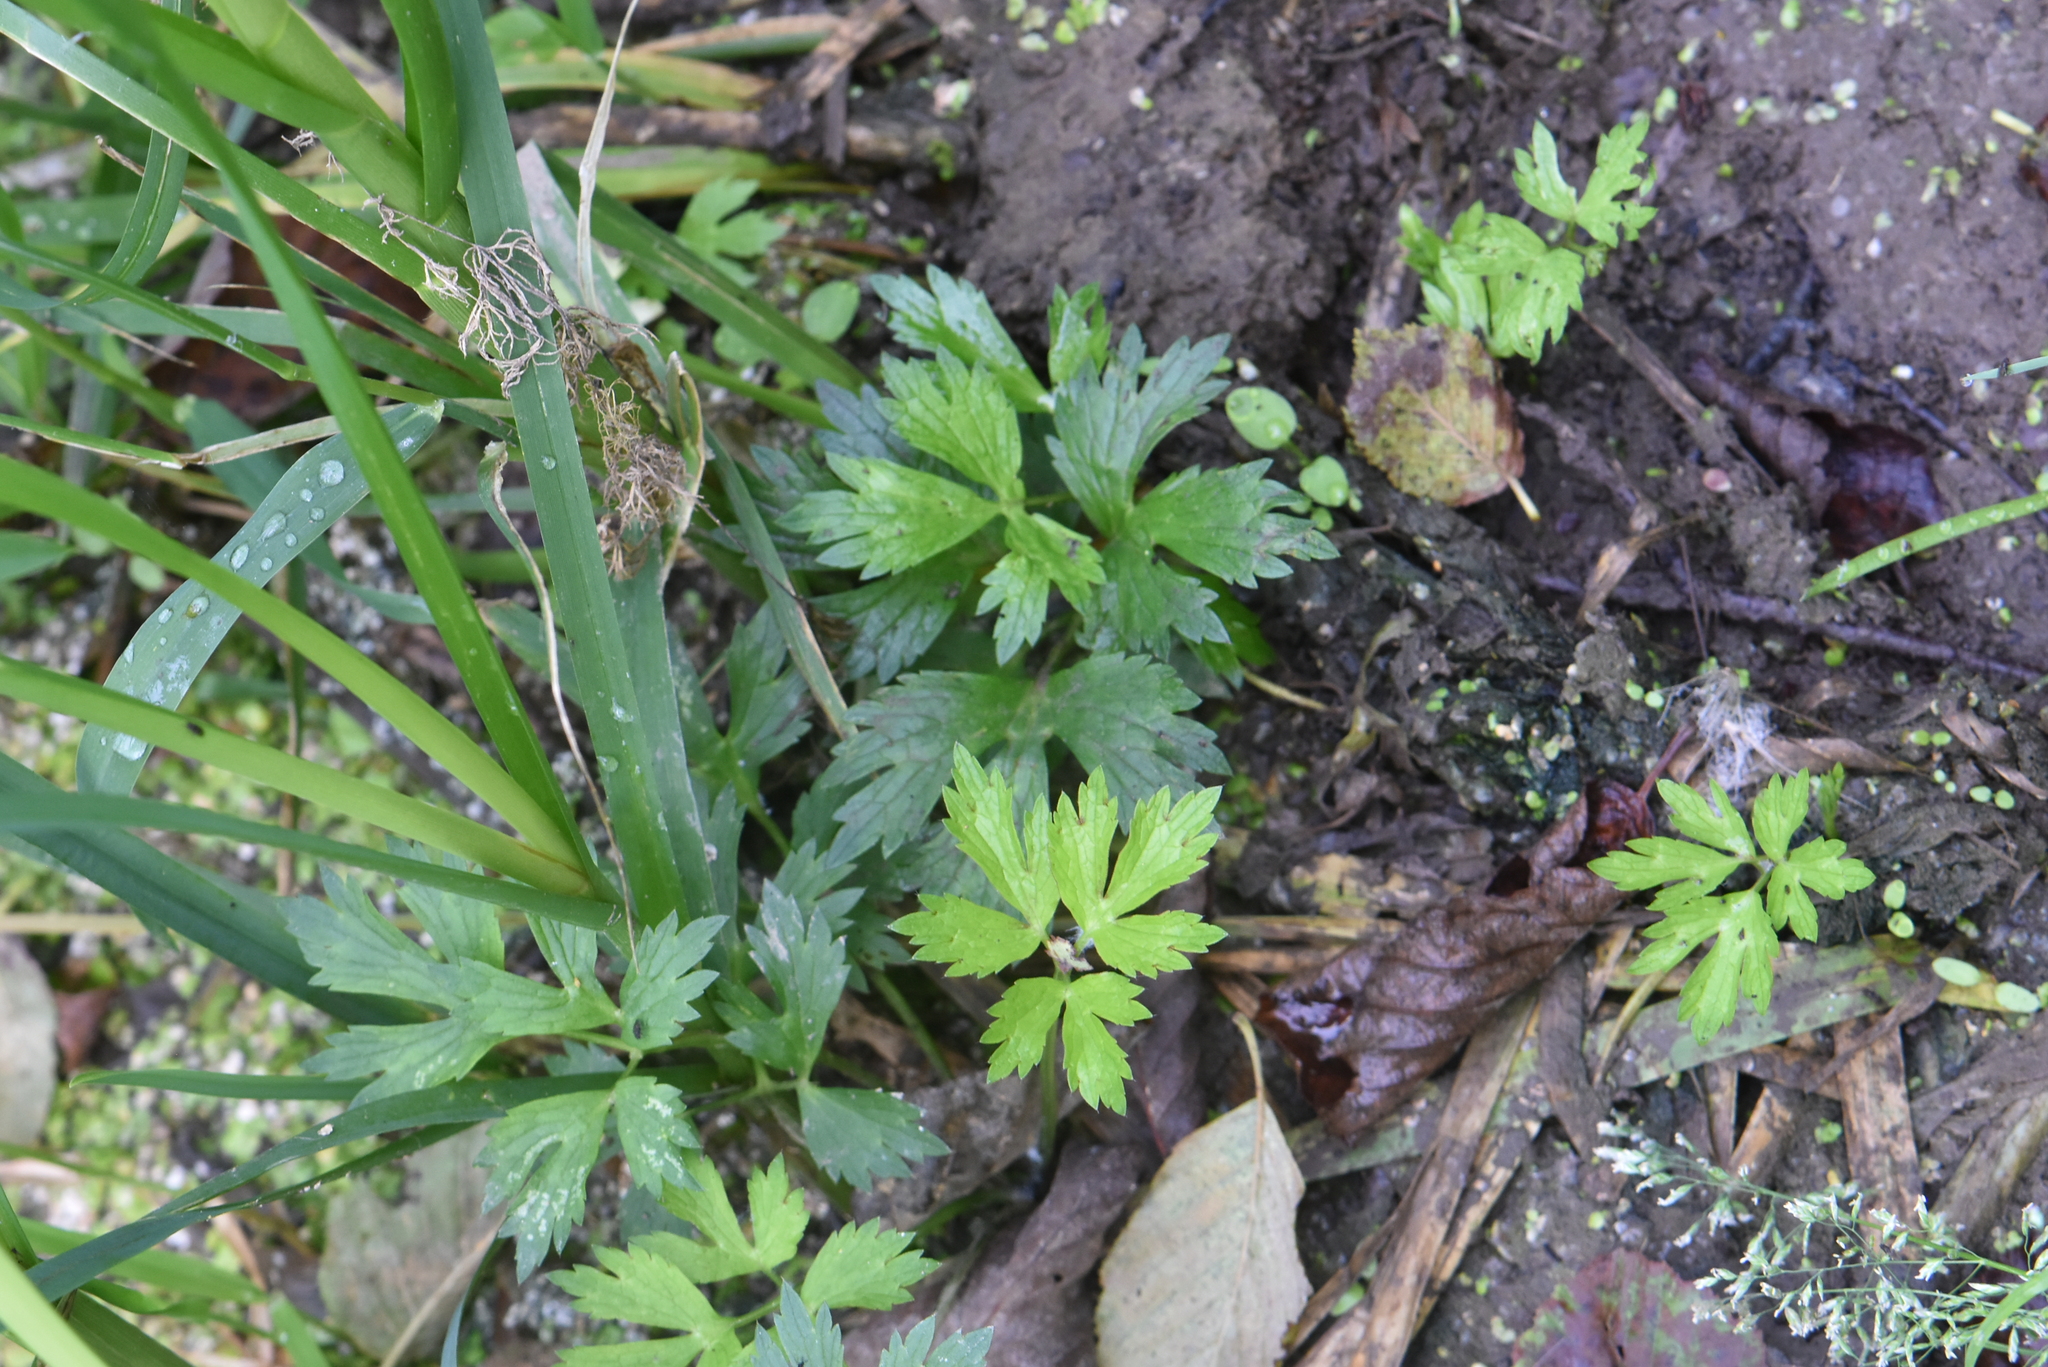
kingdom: Plantae
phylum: Tracheophyta
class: Magnoliopsida
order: Ranunculales
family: Ranunculaceae
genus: Ranunculus
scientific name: Ranunculus repens
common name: Creeping buttercup
